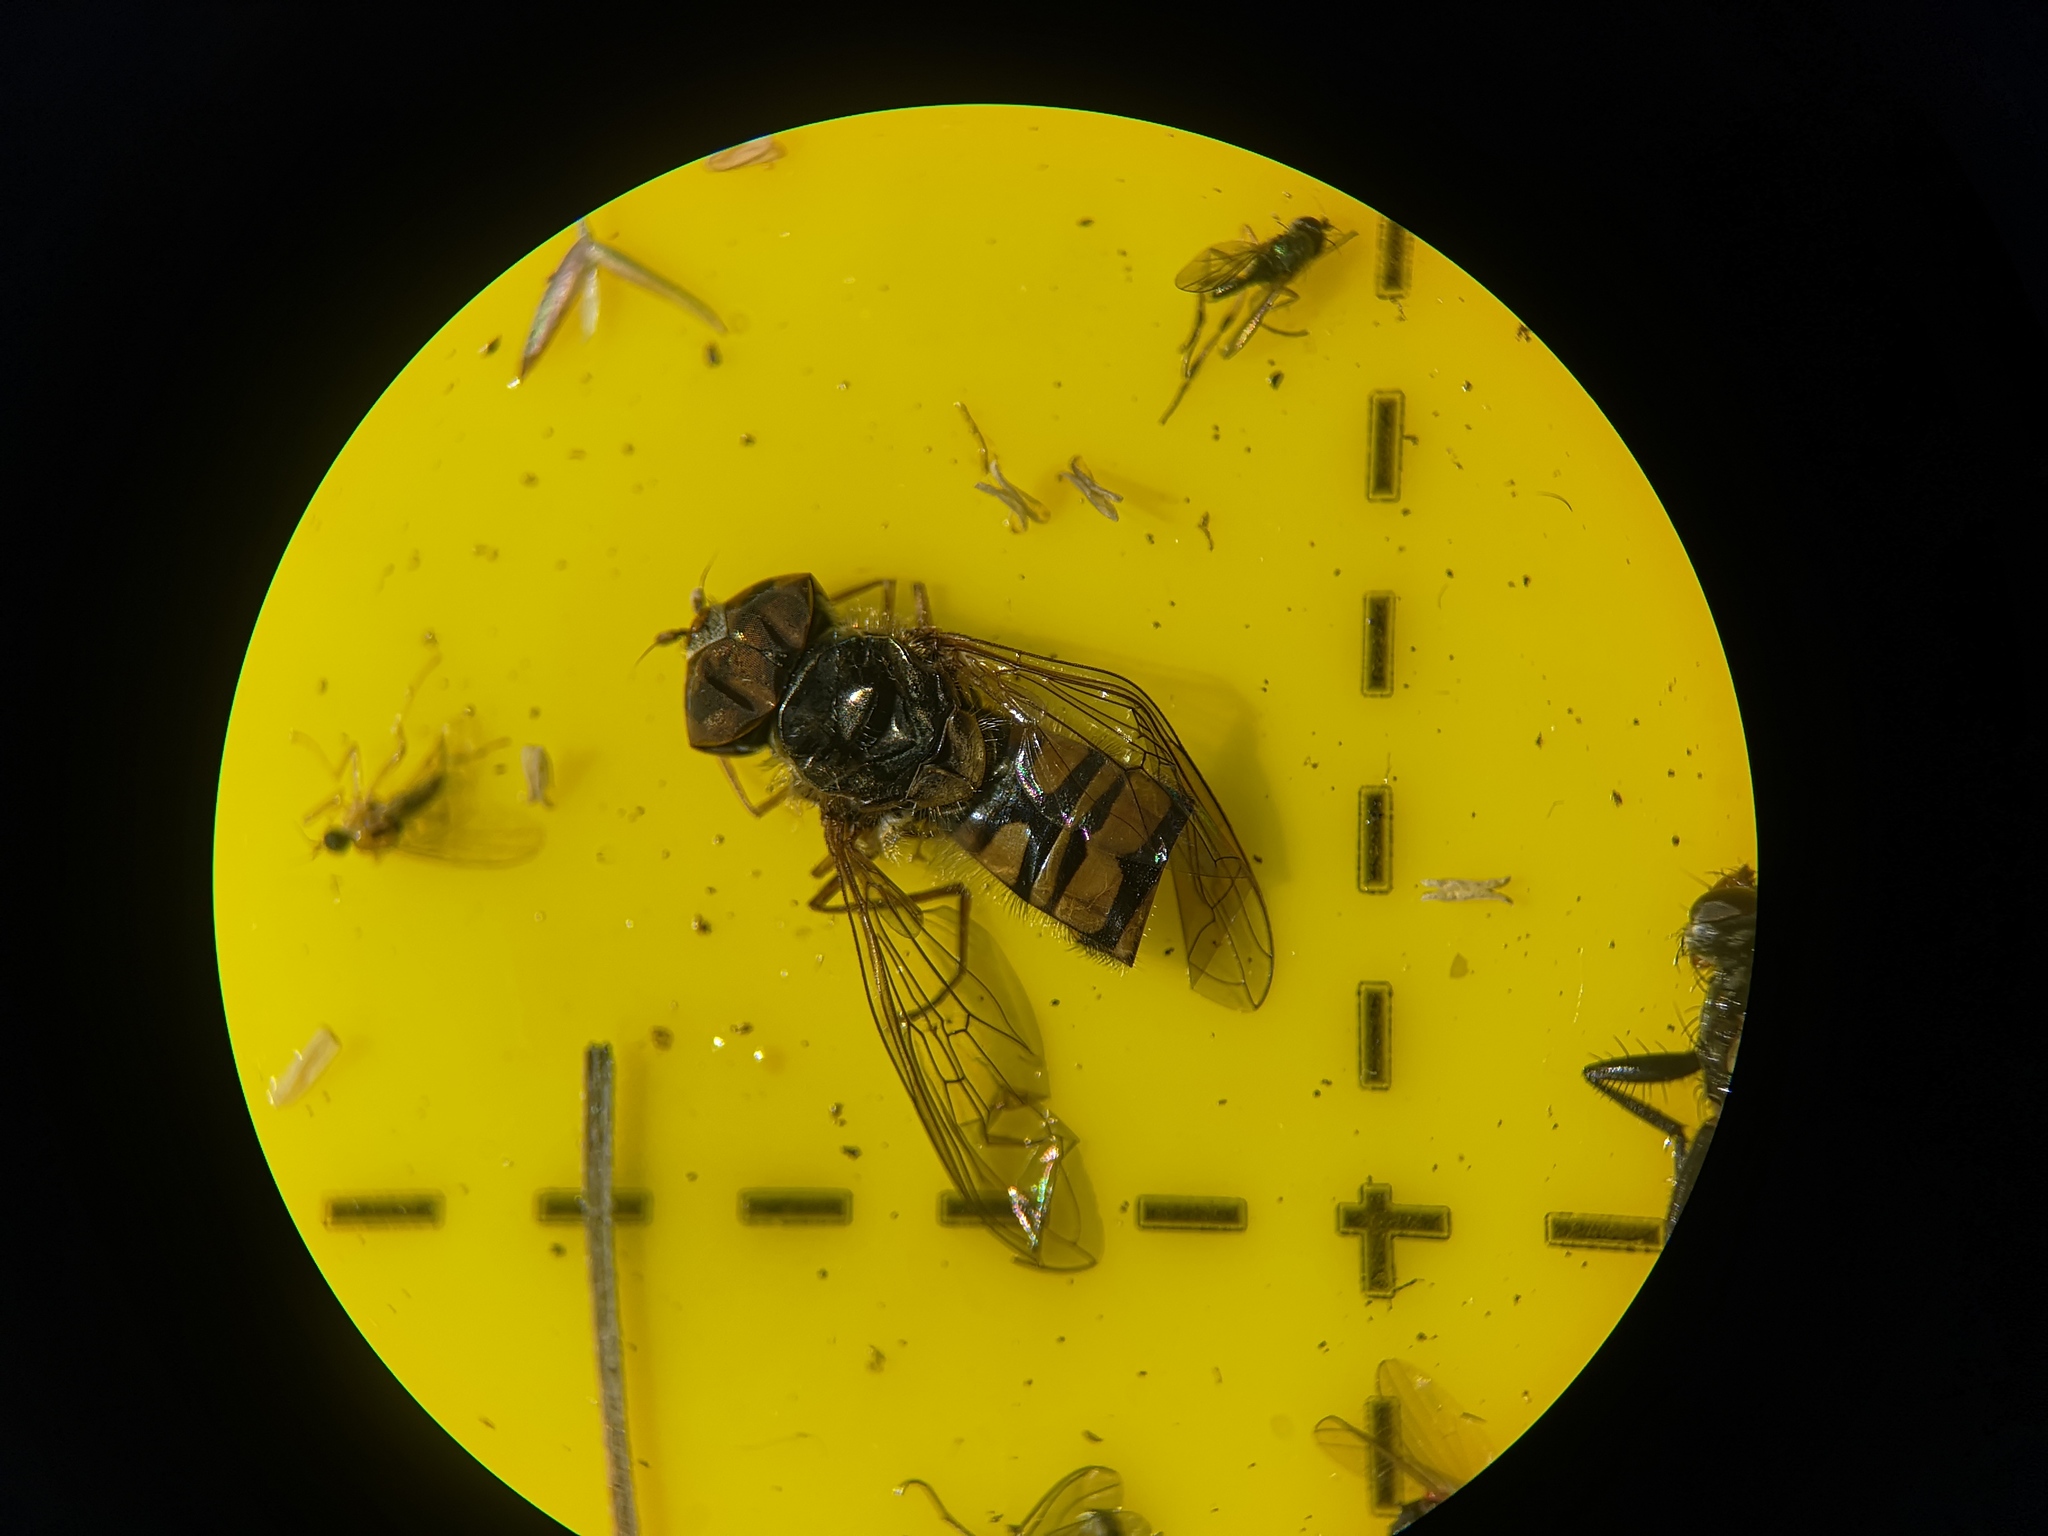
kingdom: Animalia
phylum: Arthropoda
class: Insecta
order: Diptera
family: Syrphidae
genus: Episyrphus
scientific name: Episyrphus balteatus
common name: Marmalade hoverfly
